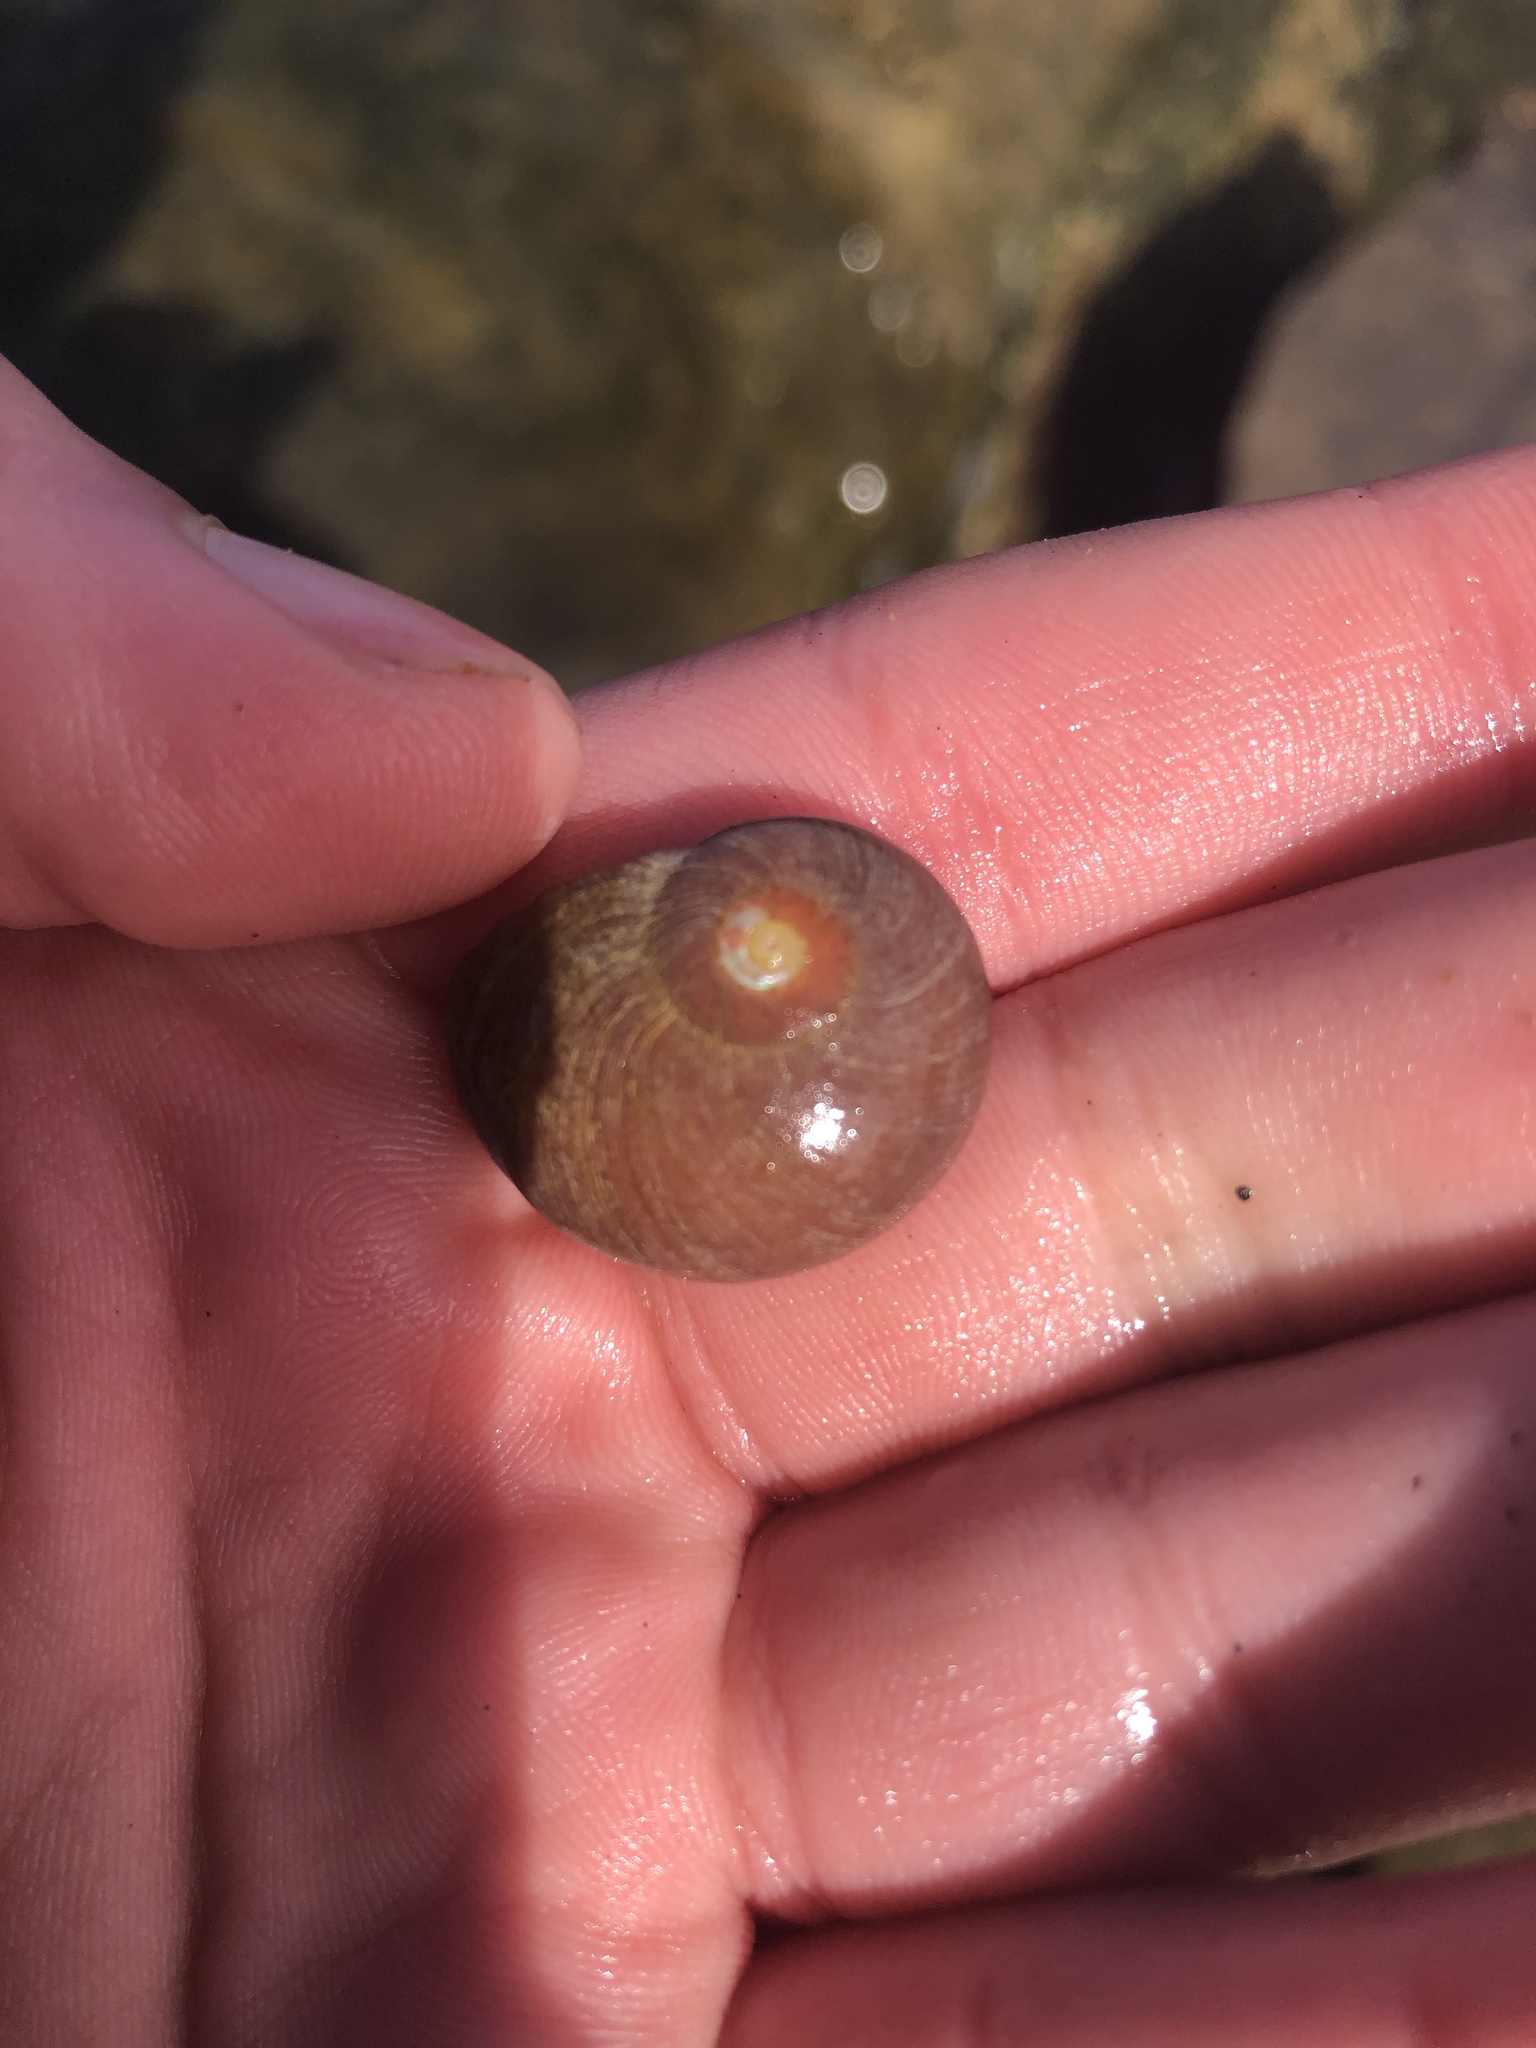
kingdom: Animalia
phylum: Mollusca
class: Gastropoda
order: Trochida
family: Tegulidae
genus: Norrisia
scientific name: Norrisia norrisii
